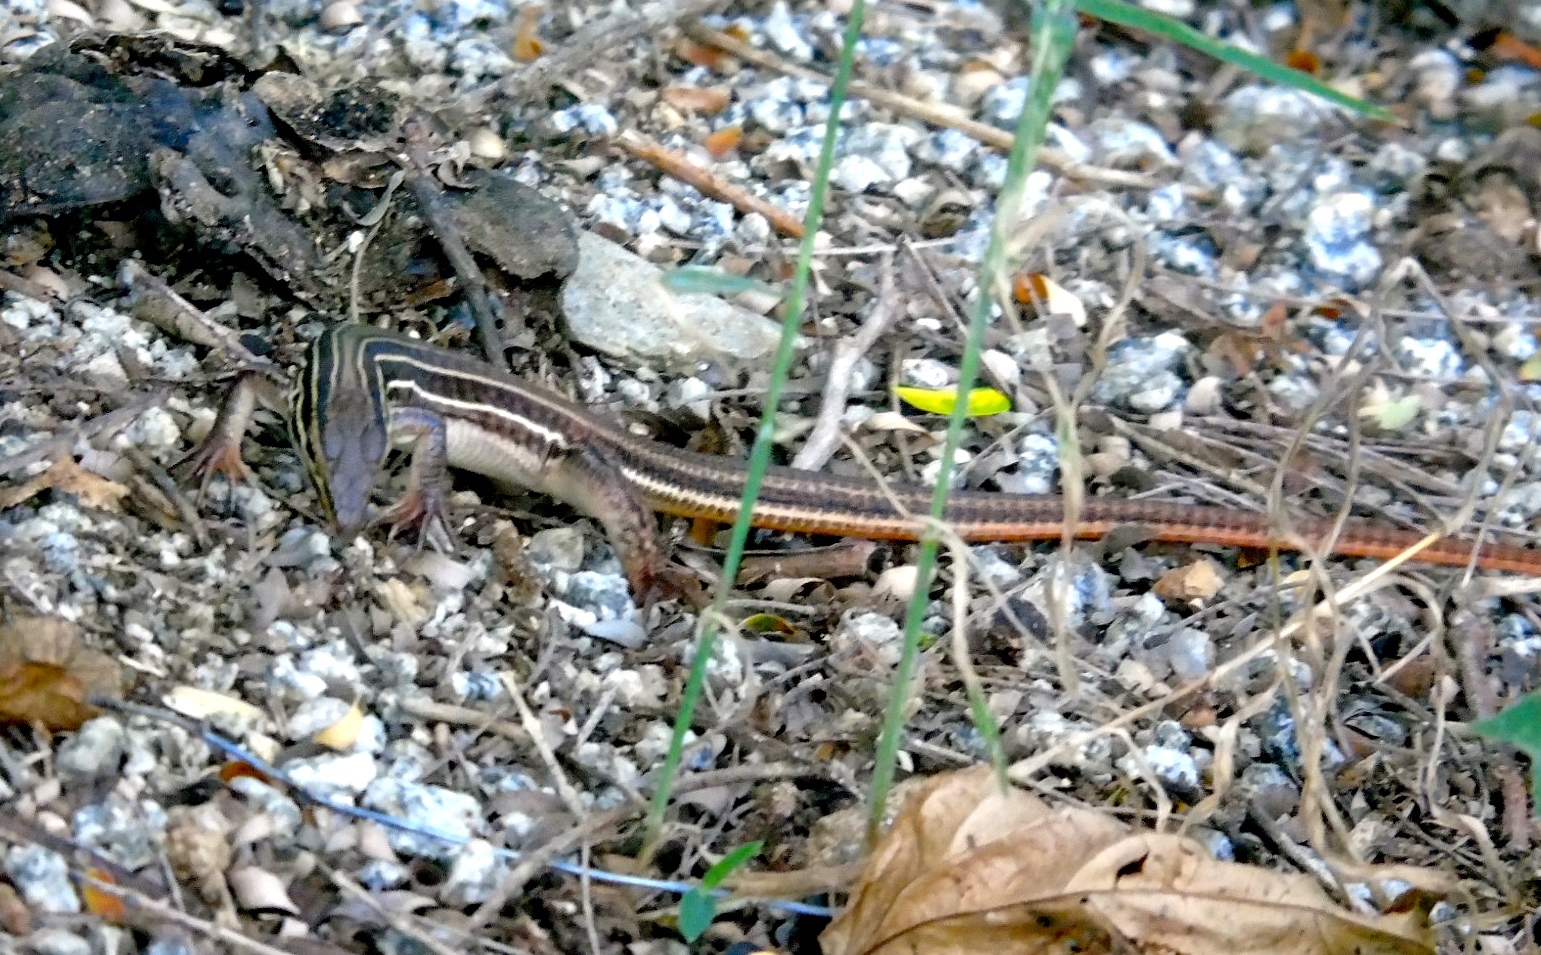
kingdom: Animalia
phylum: Chordata
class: Squamata
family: Teiidae
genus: Aspidoscelis
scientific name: Aspidoscelis costatus
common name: Western mexico whiptail
